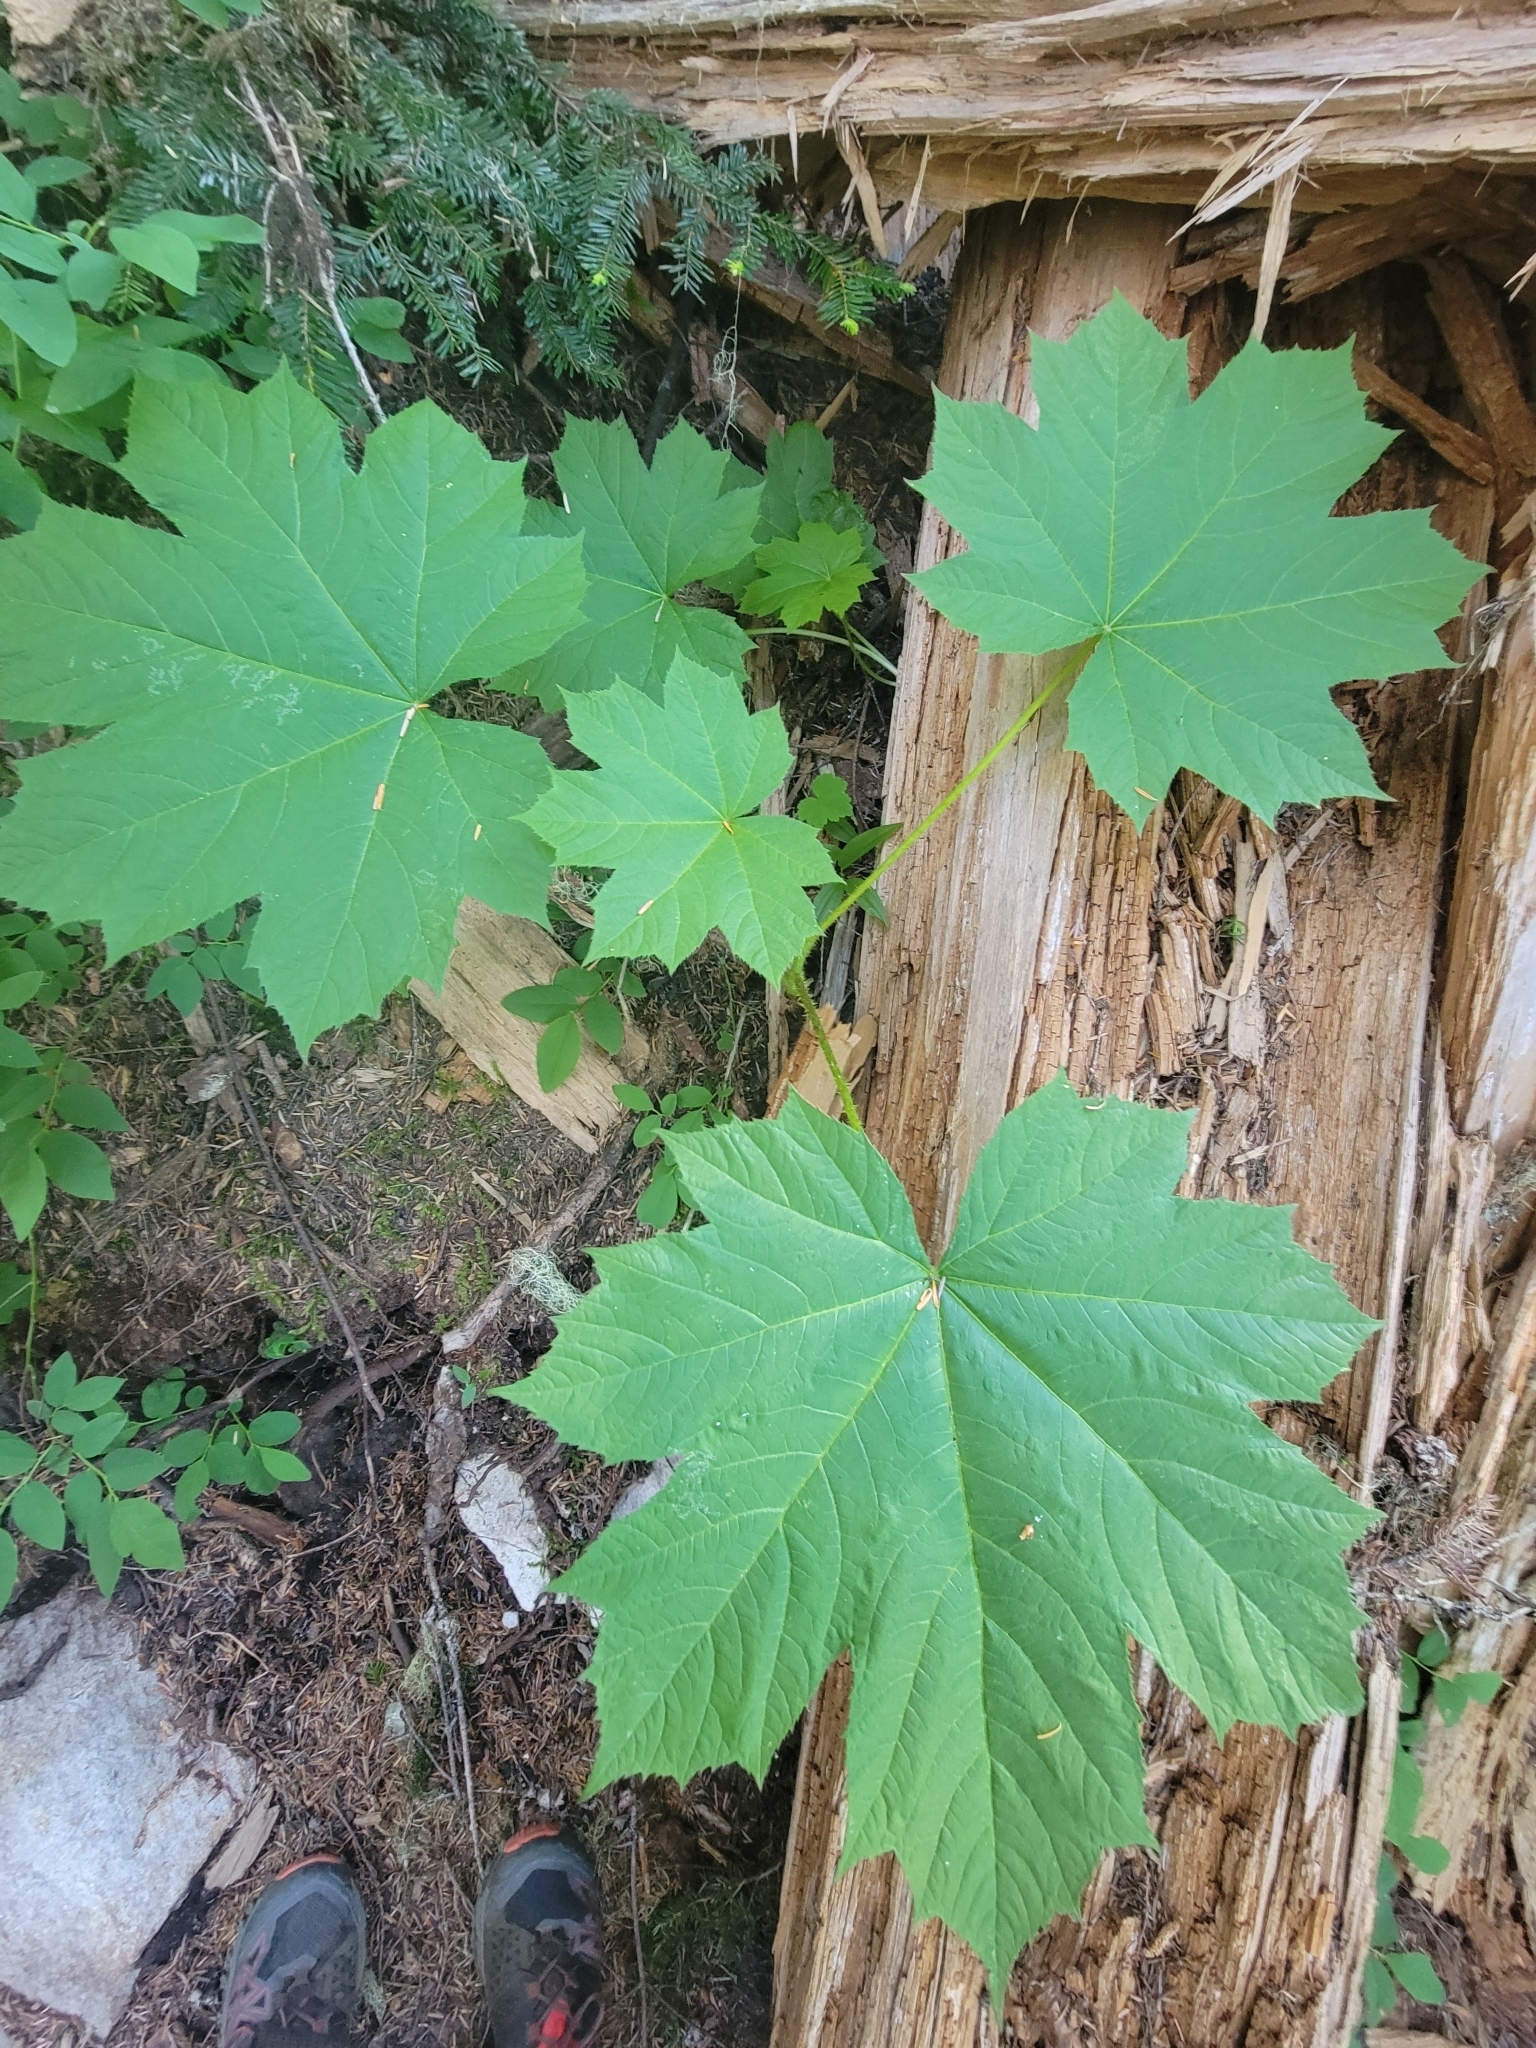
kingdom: Plantae
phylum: Tracheophyta
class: Magnoliopsida
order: Apiales
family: Araliaceae
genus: Oplopanax
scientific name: Oplopanax horridus
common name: Devil's walking-stick
